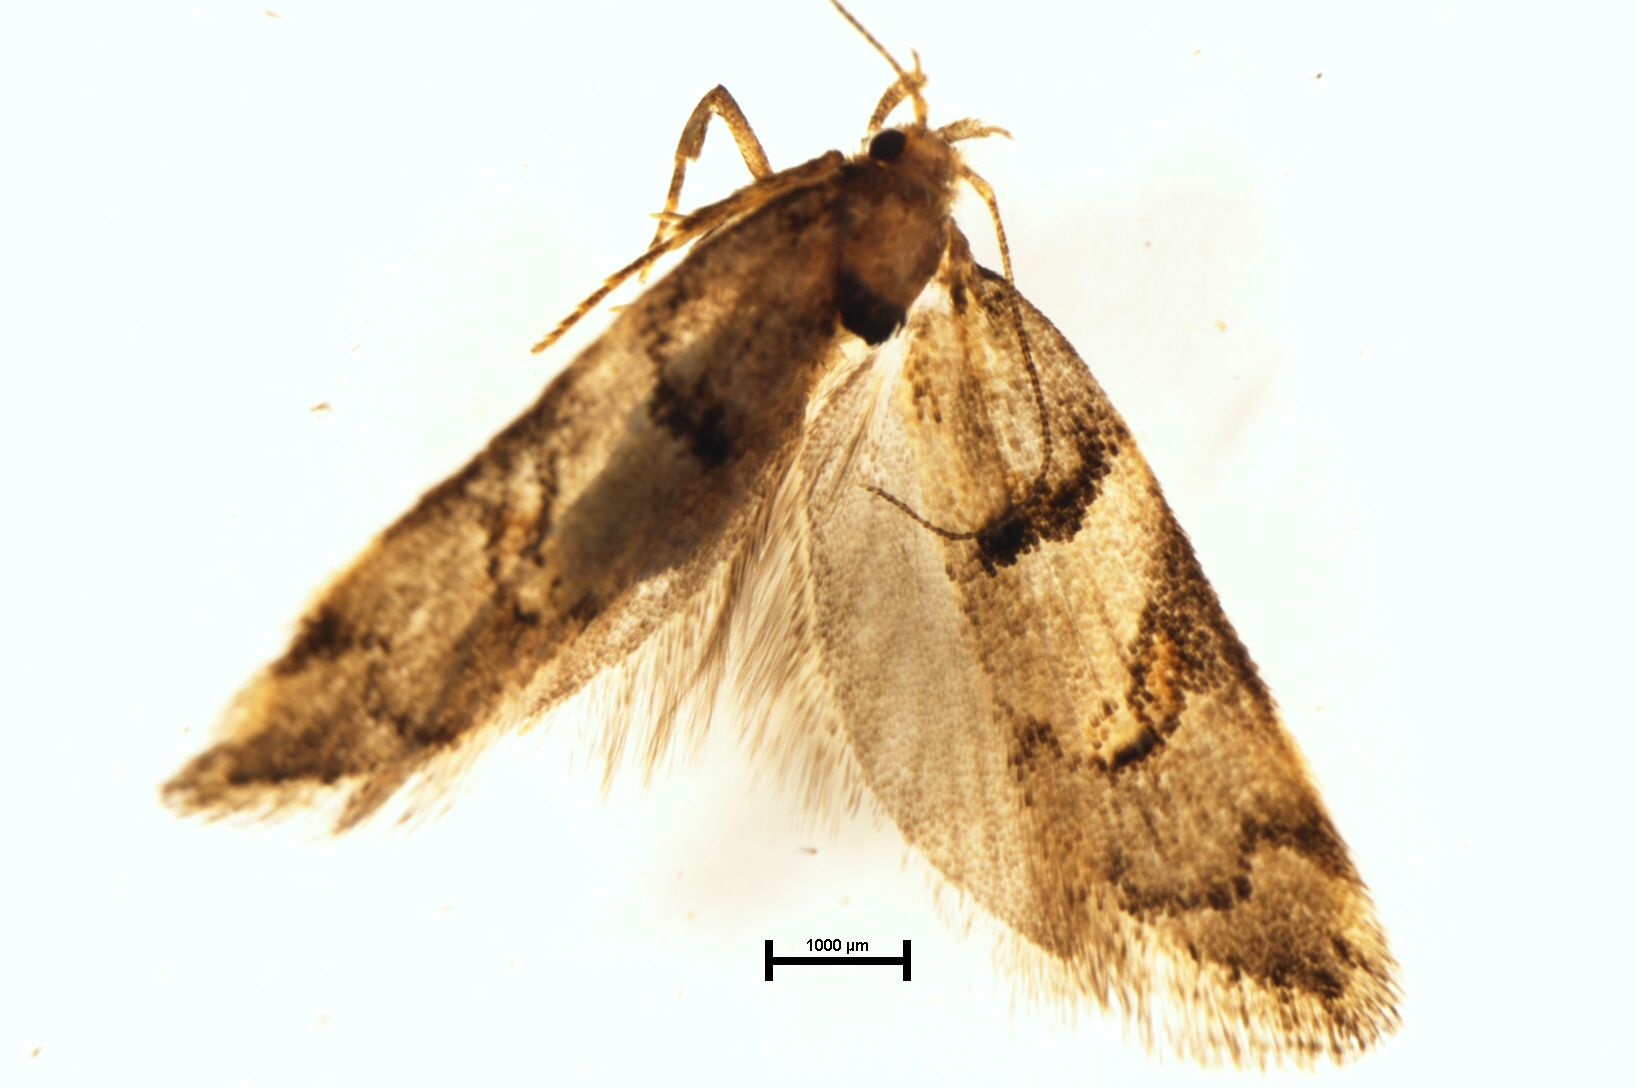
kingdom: Animalia
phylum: Arthropoda
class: Insecta
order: Lepidoptera
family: Oecophoridae
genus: Trachypepla
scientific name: Trachypepla contritella
